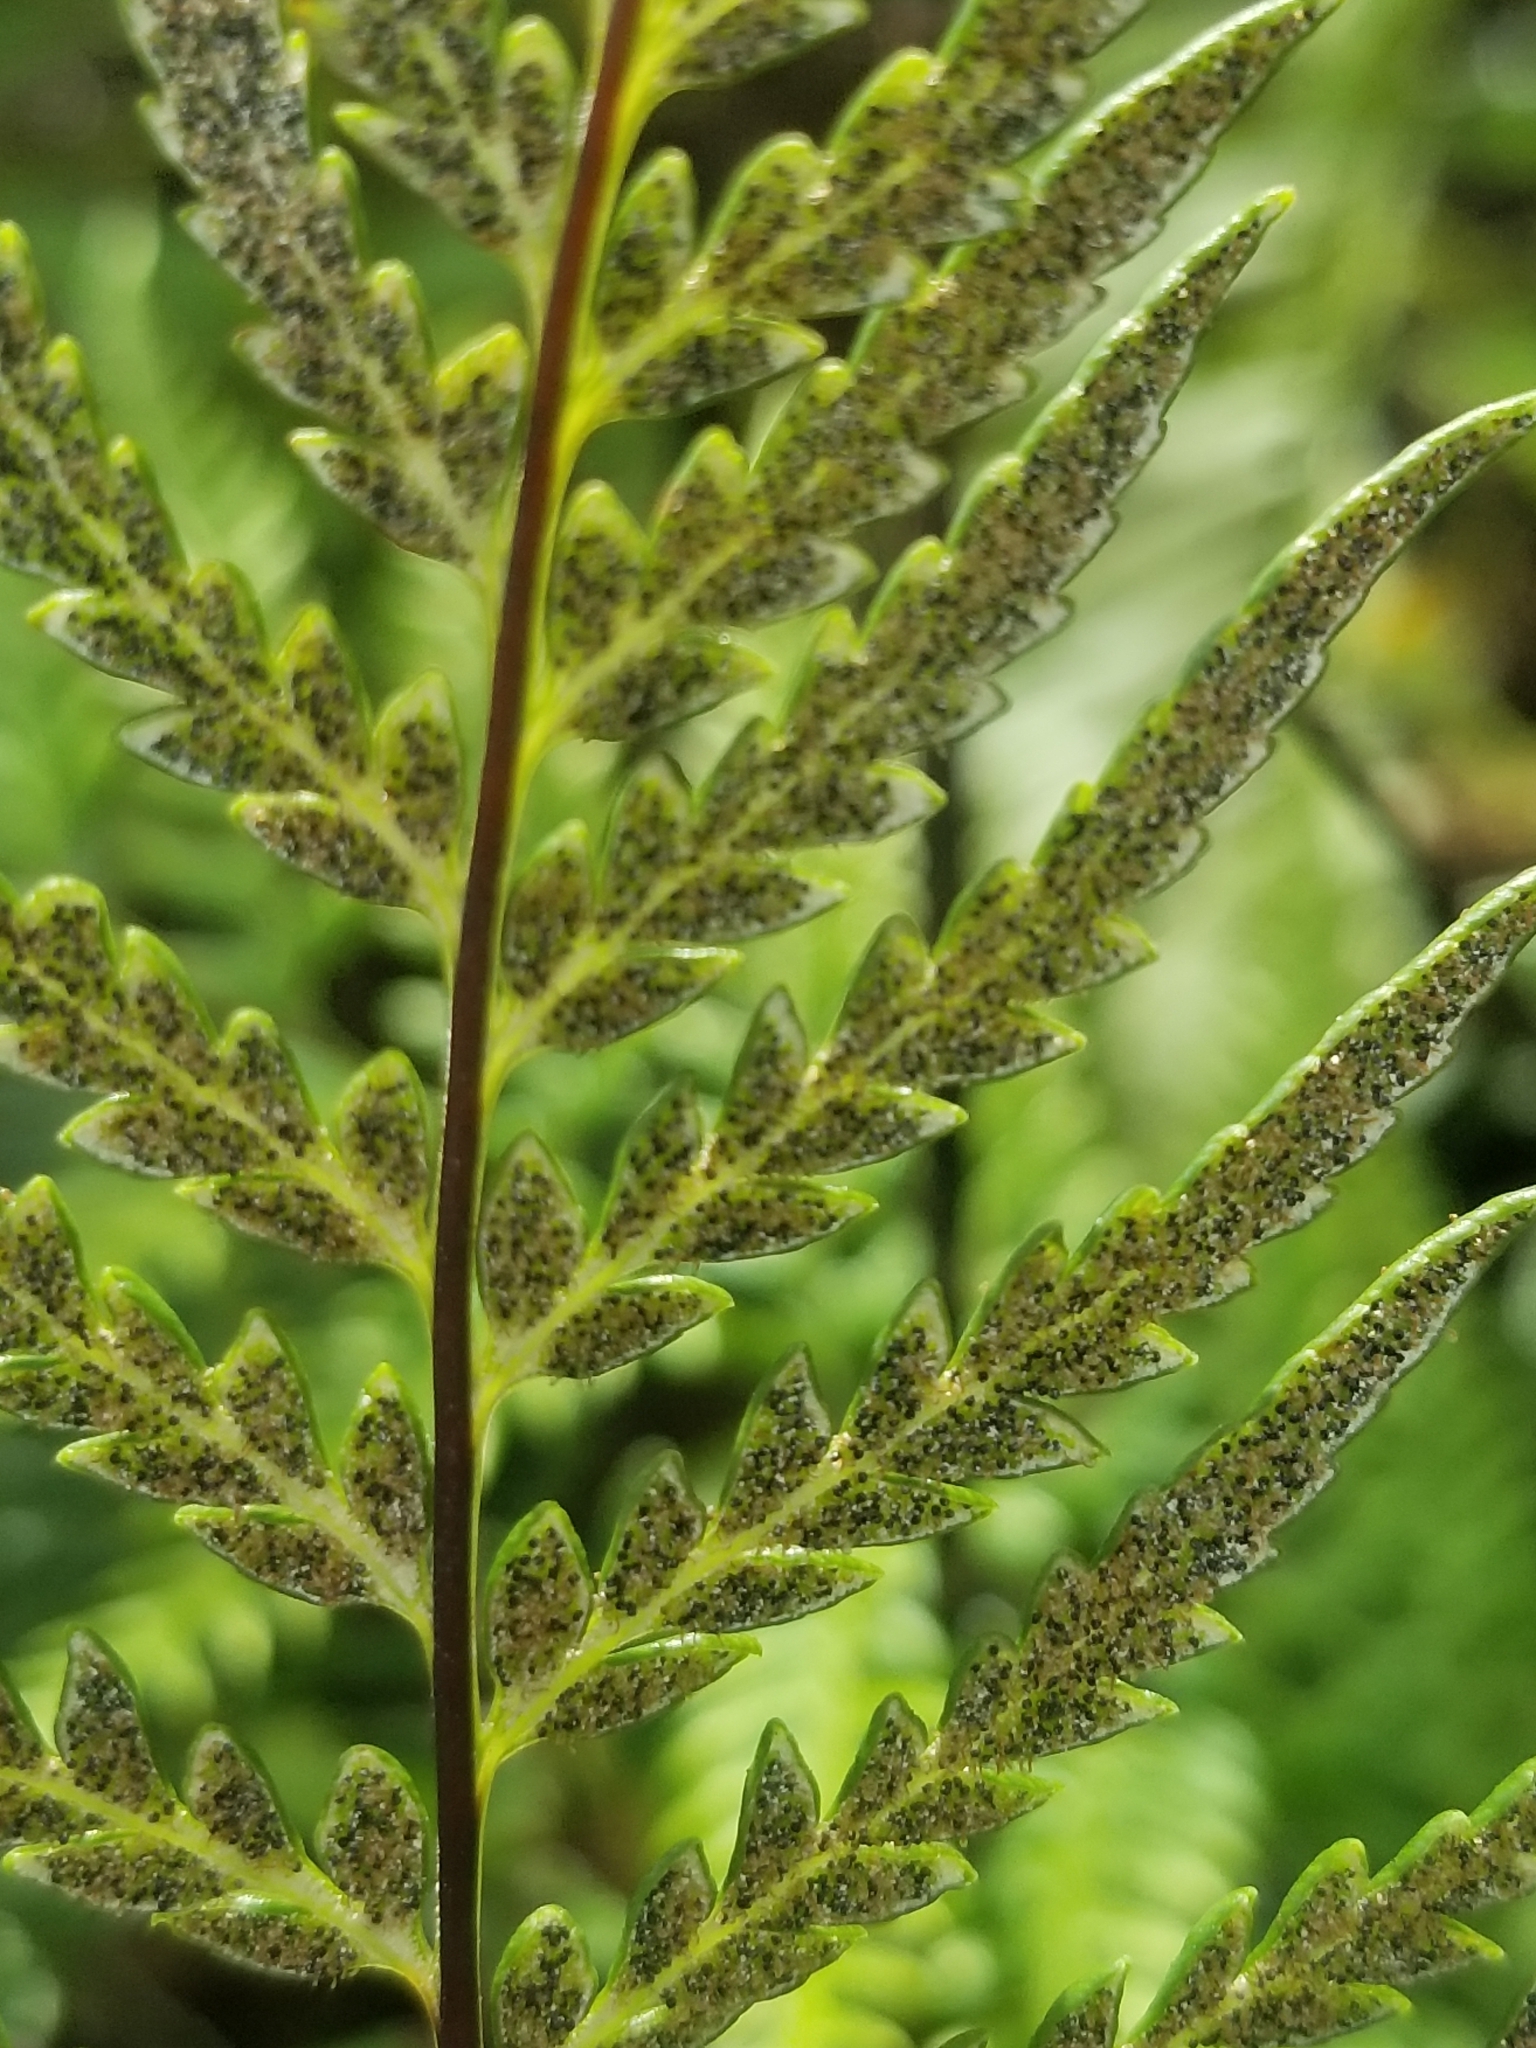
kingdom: Plantae
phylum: Tracheophyta
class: Polypodiopsida
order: Polypodiales
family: Pteridaceae
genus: Pityrogramma
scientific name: Pityrogramma calomelanos
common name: Dixie silverback fern
